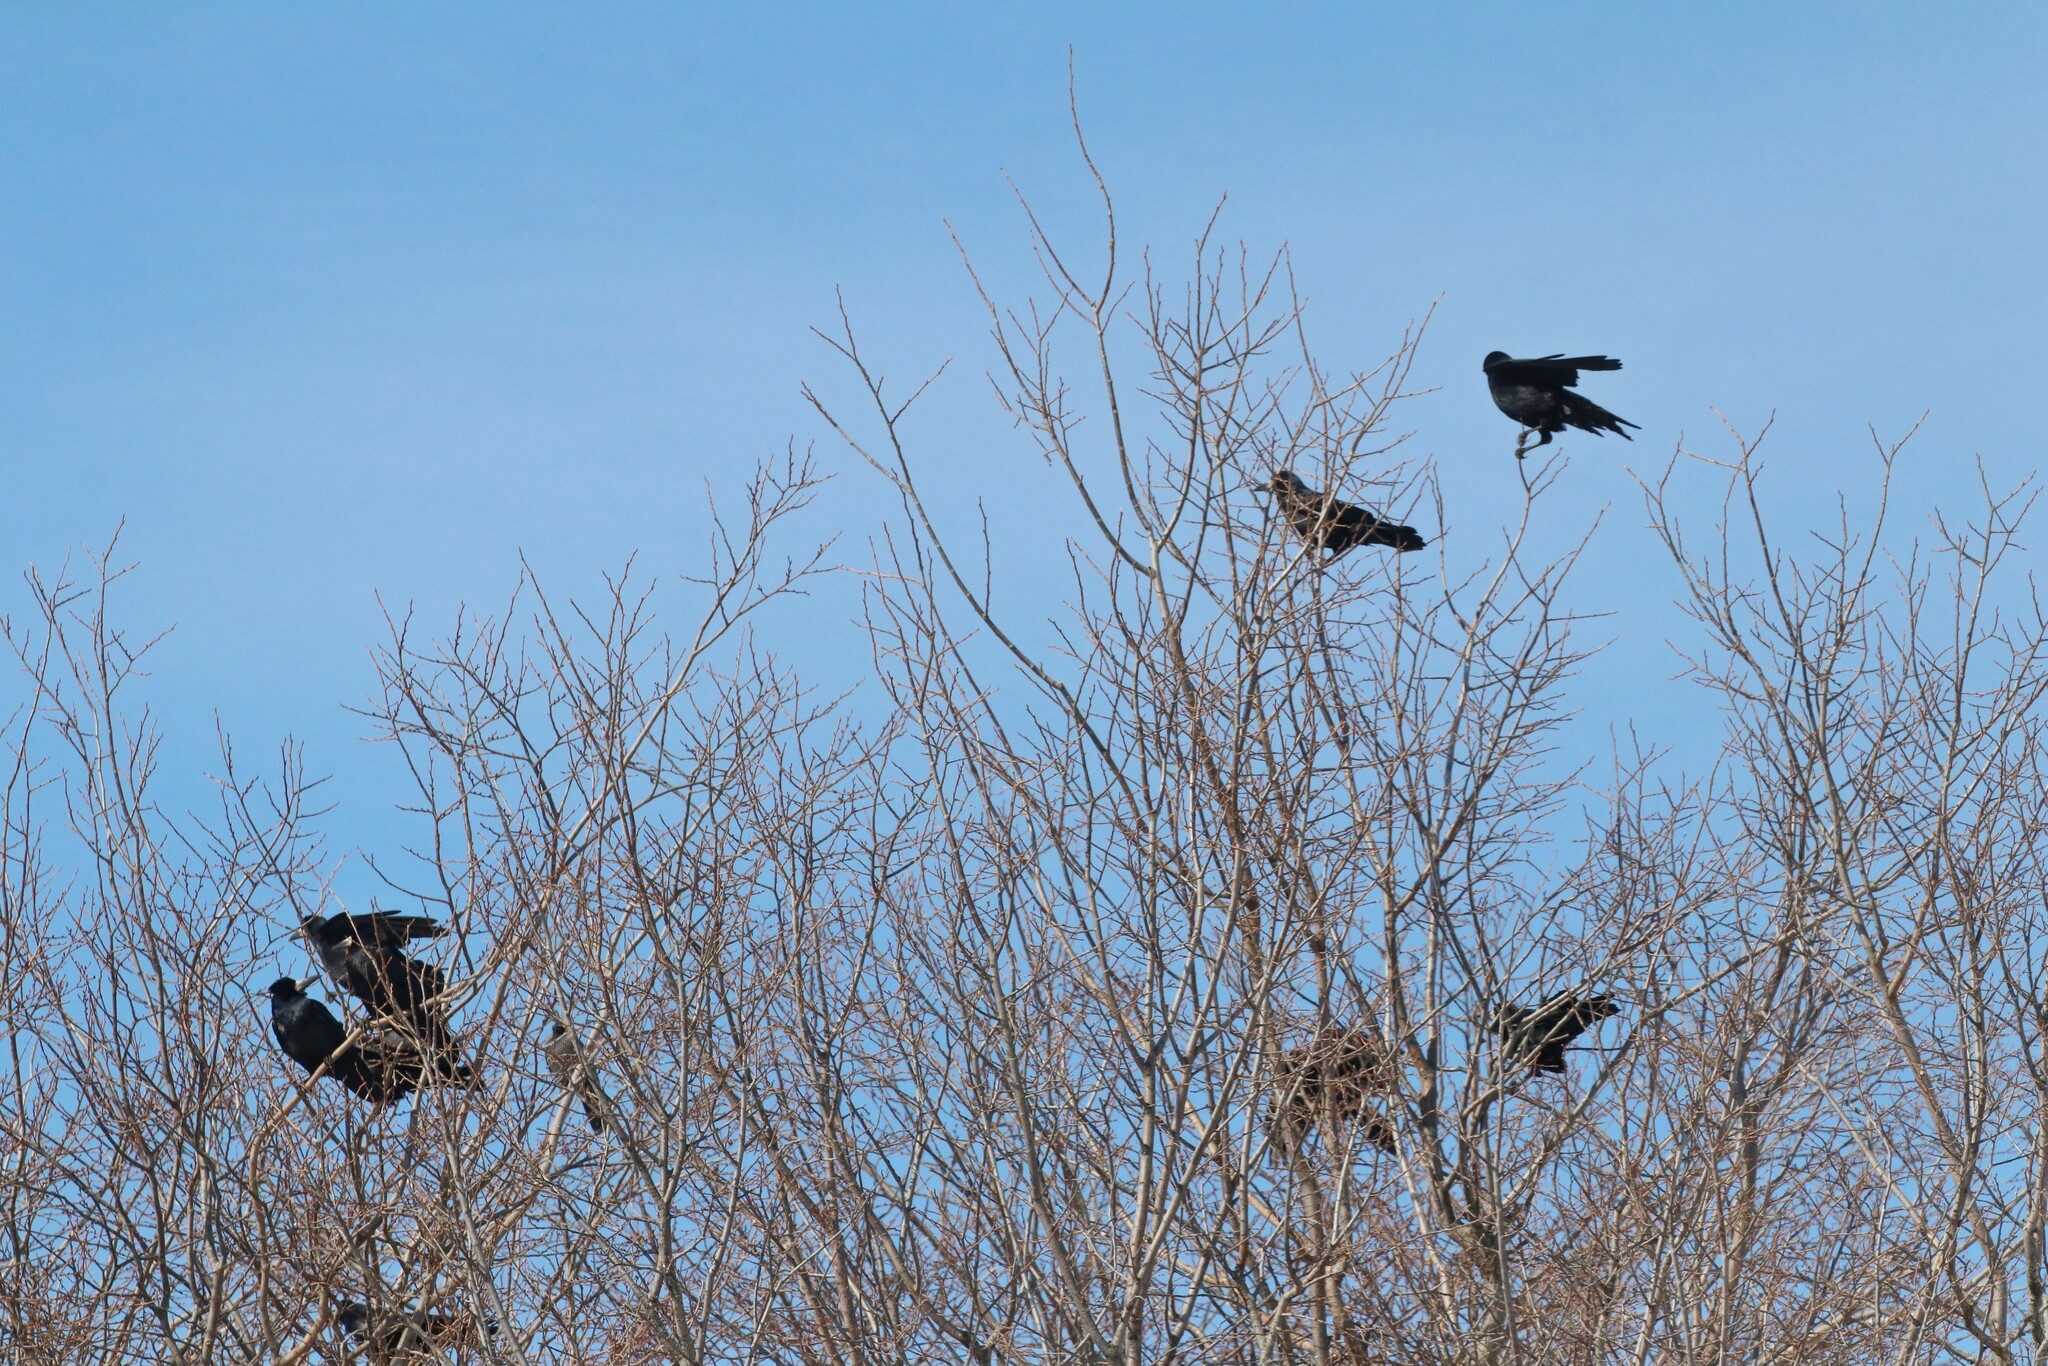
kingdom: Animalia
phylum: Chordata
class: Aves
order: Passeriformes
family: Corvidae
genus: Corvus
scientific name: Corvus frugilegus
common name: Rook
